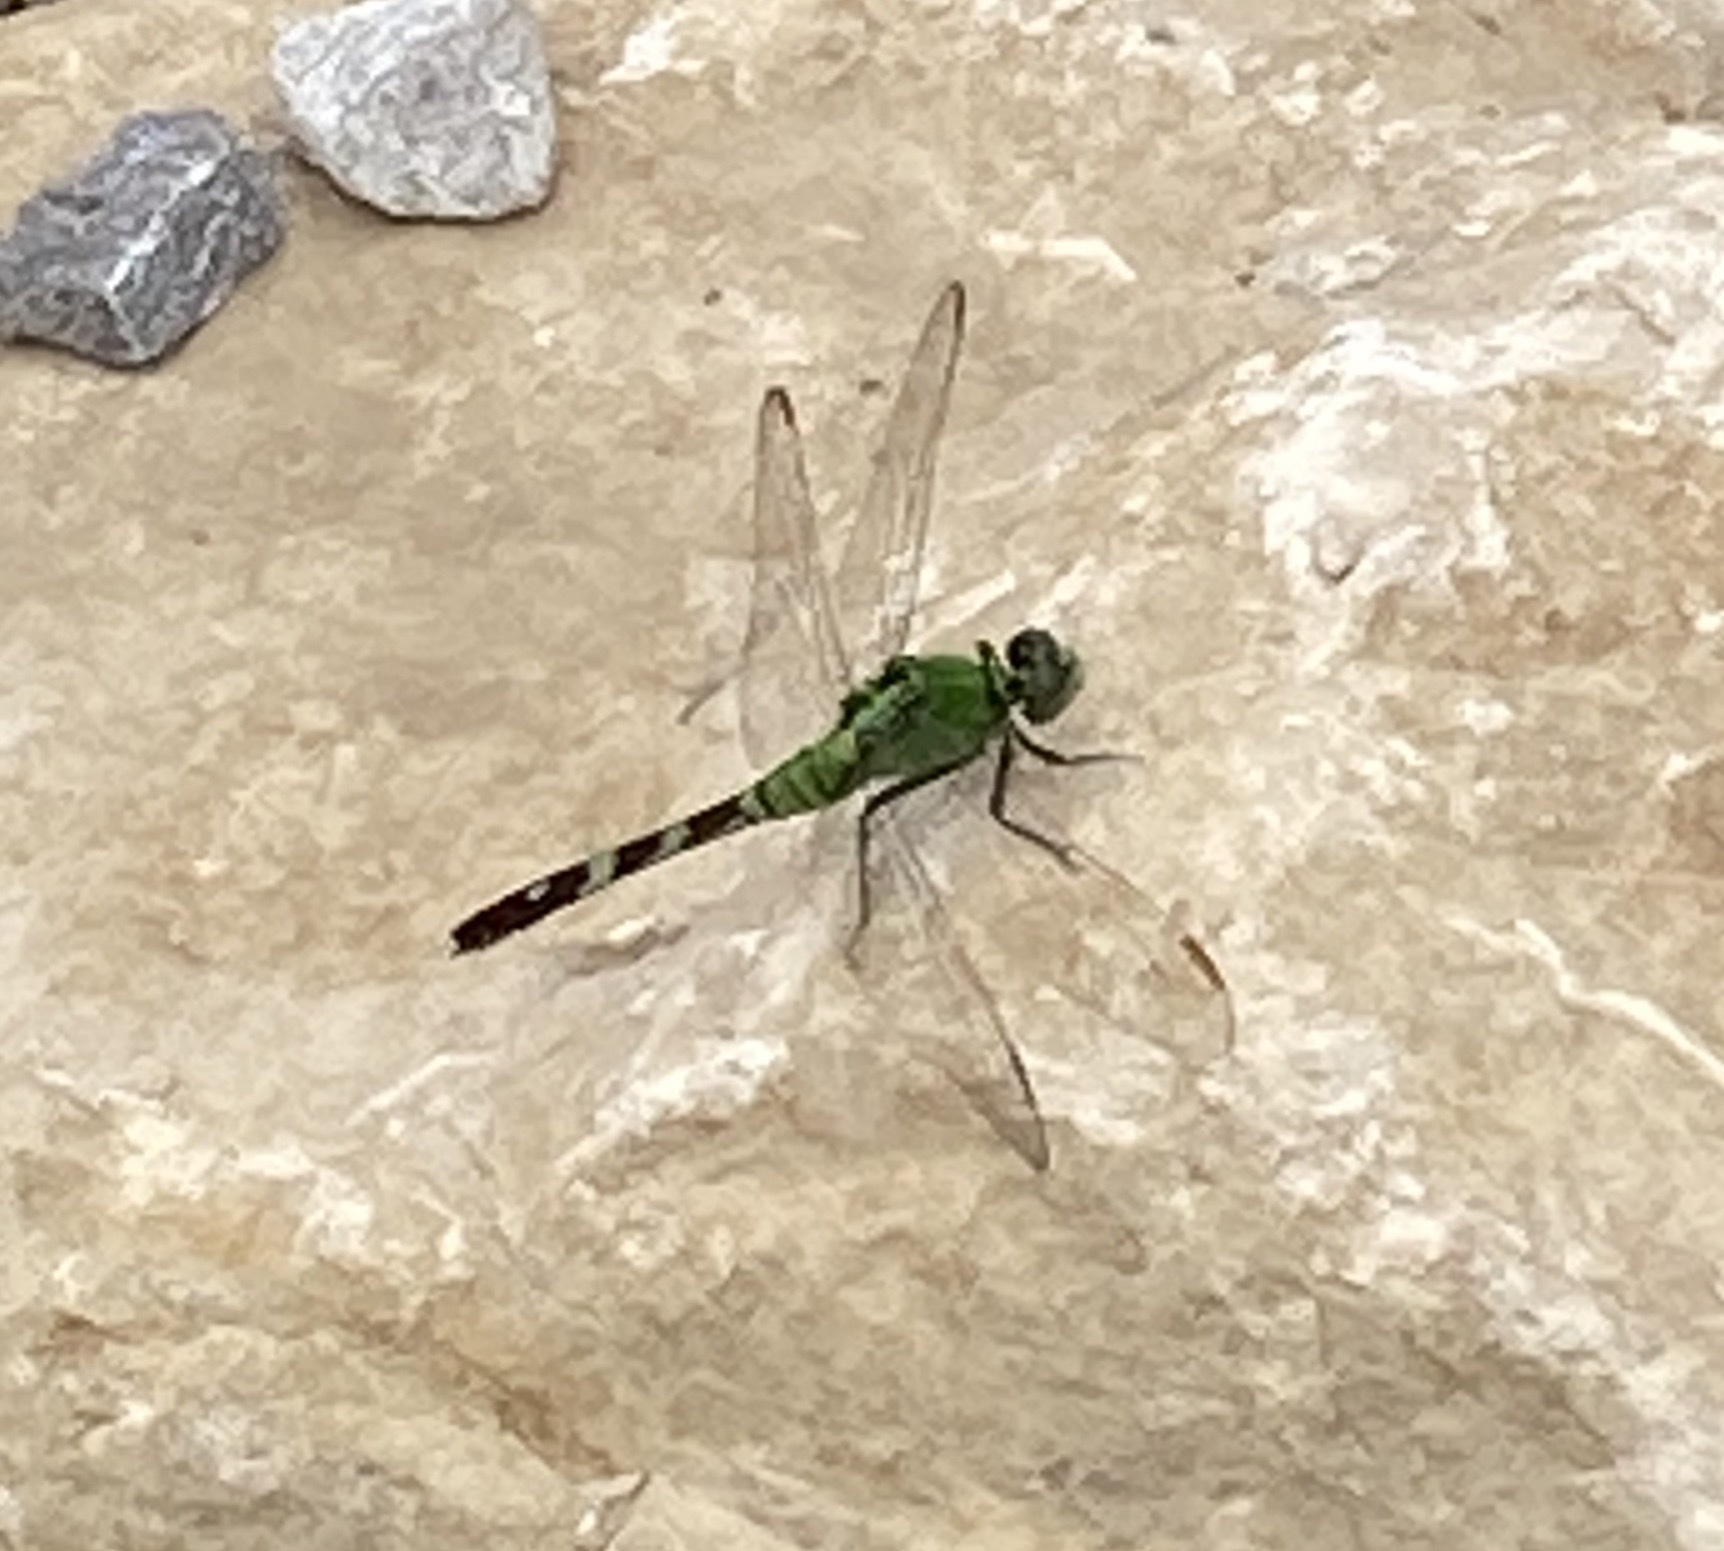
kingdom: Animalia
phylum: Arthropoda
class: Insecta
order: Odonata
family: Libellulidae
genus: Erythemis
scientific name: Erythemis simplicicollis
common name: Eastern pondhawk
